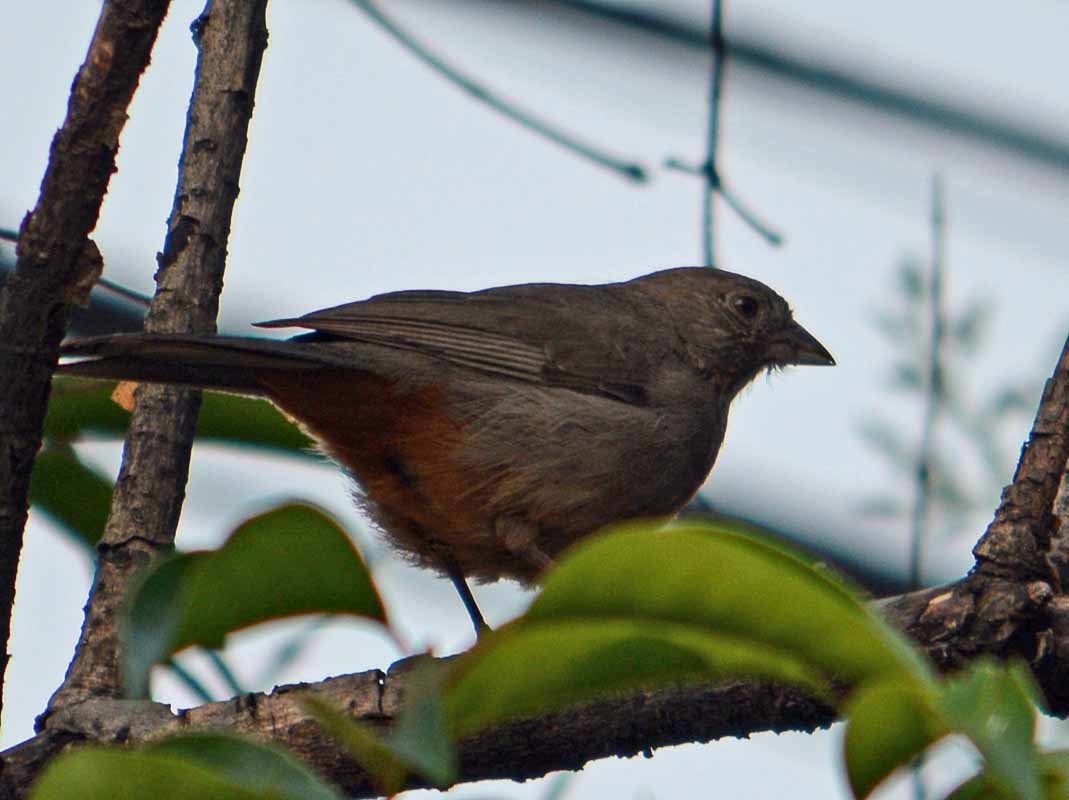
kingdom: Animalia
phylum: Chordata
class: Aves
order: Passeriformes
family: Passerellidae
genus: Melozone
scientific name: Melozone fusca
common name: Canyon towhee
